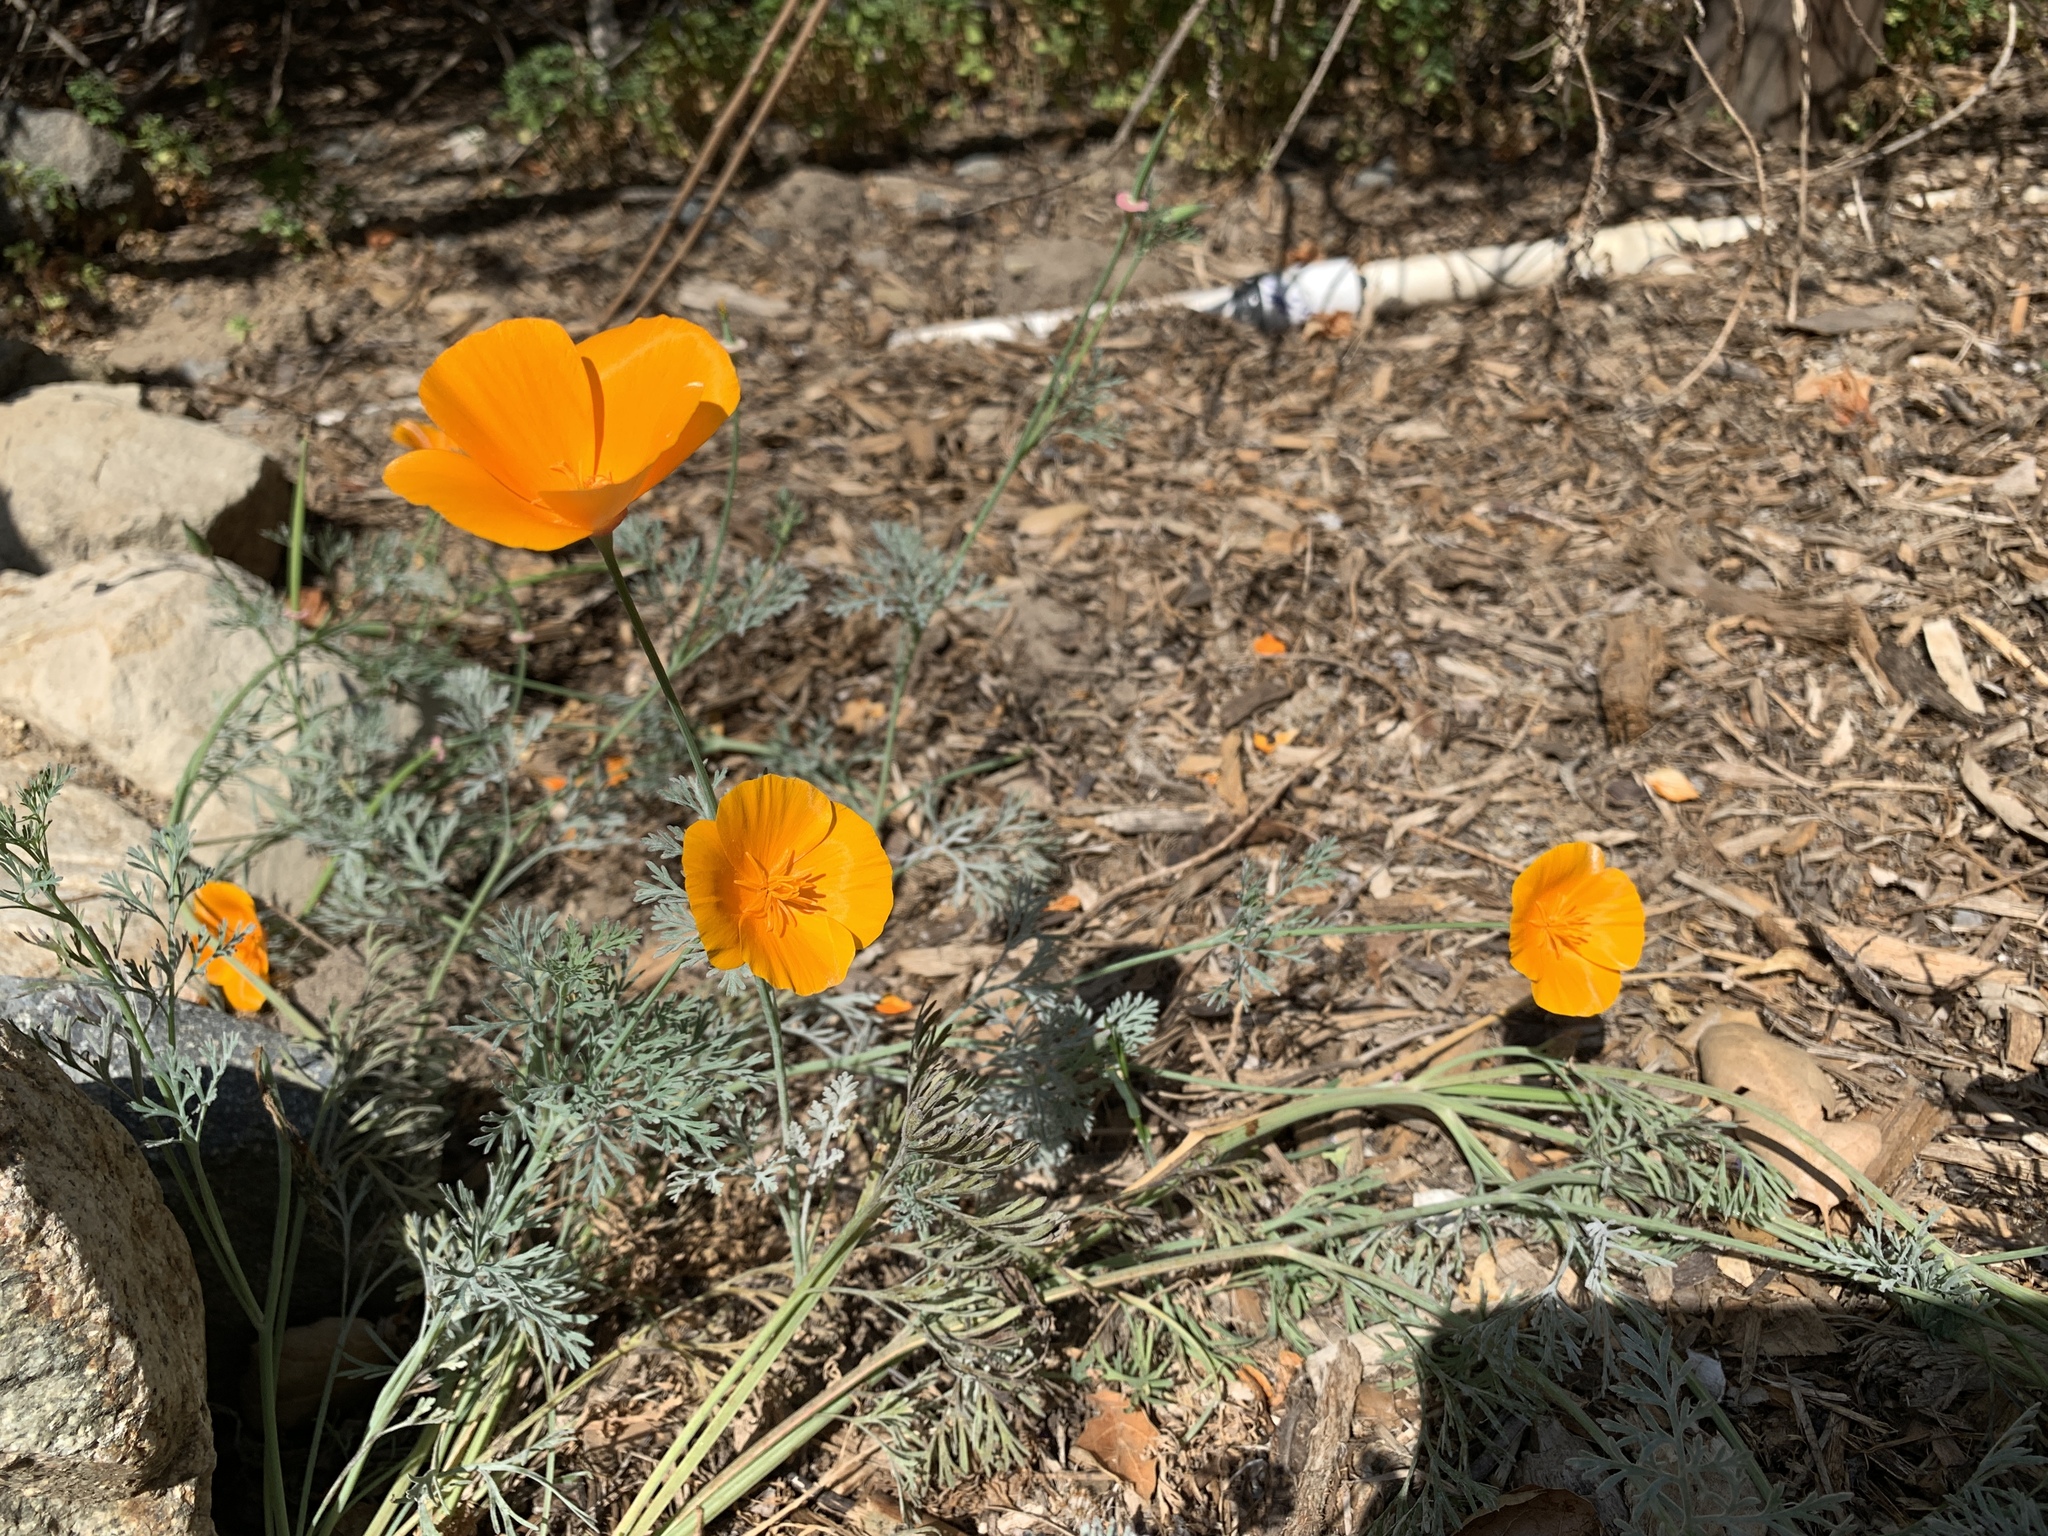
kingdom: Plantae
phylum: Tracheophyta
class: Magnoliopsida
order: Ranunculales
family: Papaveraceae
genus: Eschscholzia
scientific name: Eschscholzia californica
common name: California poppy
